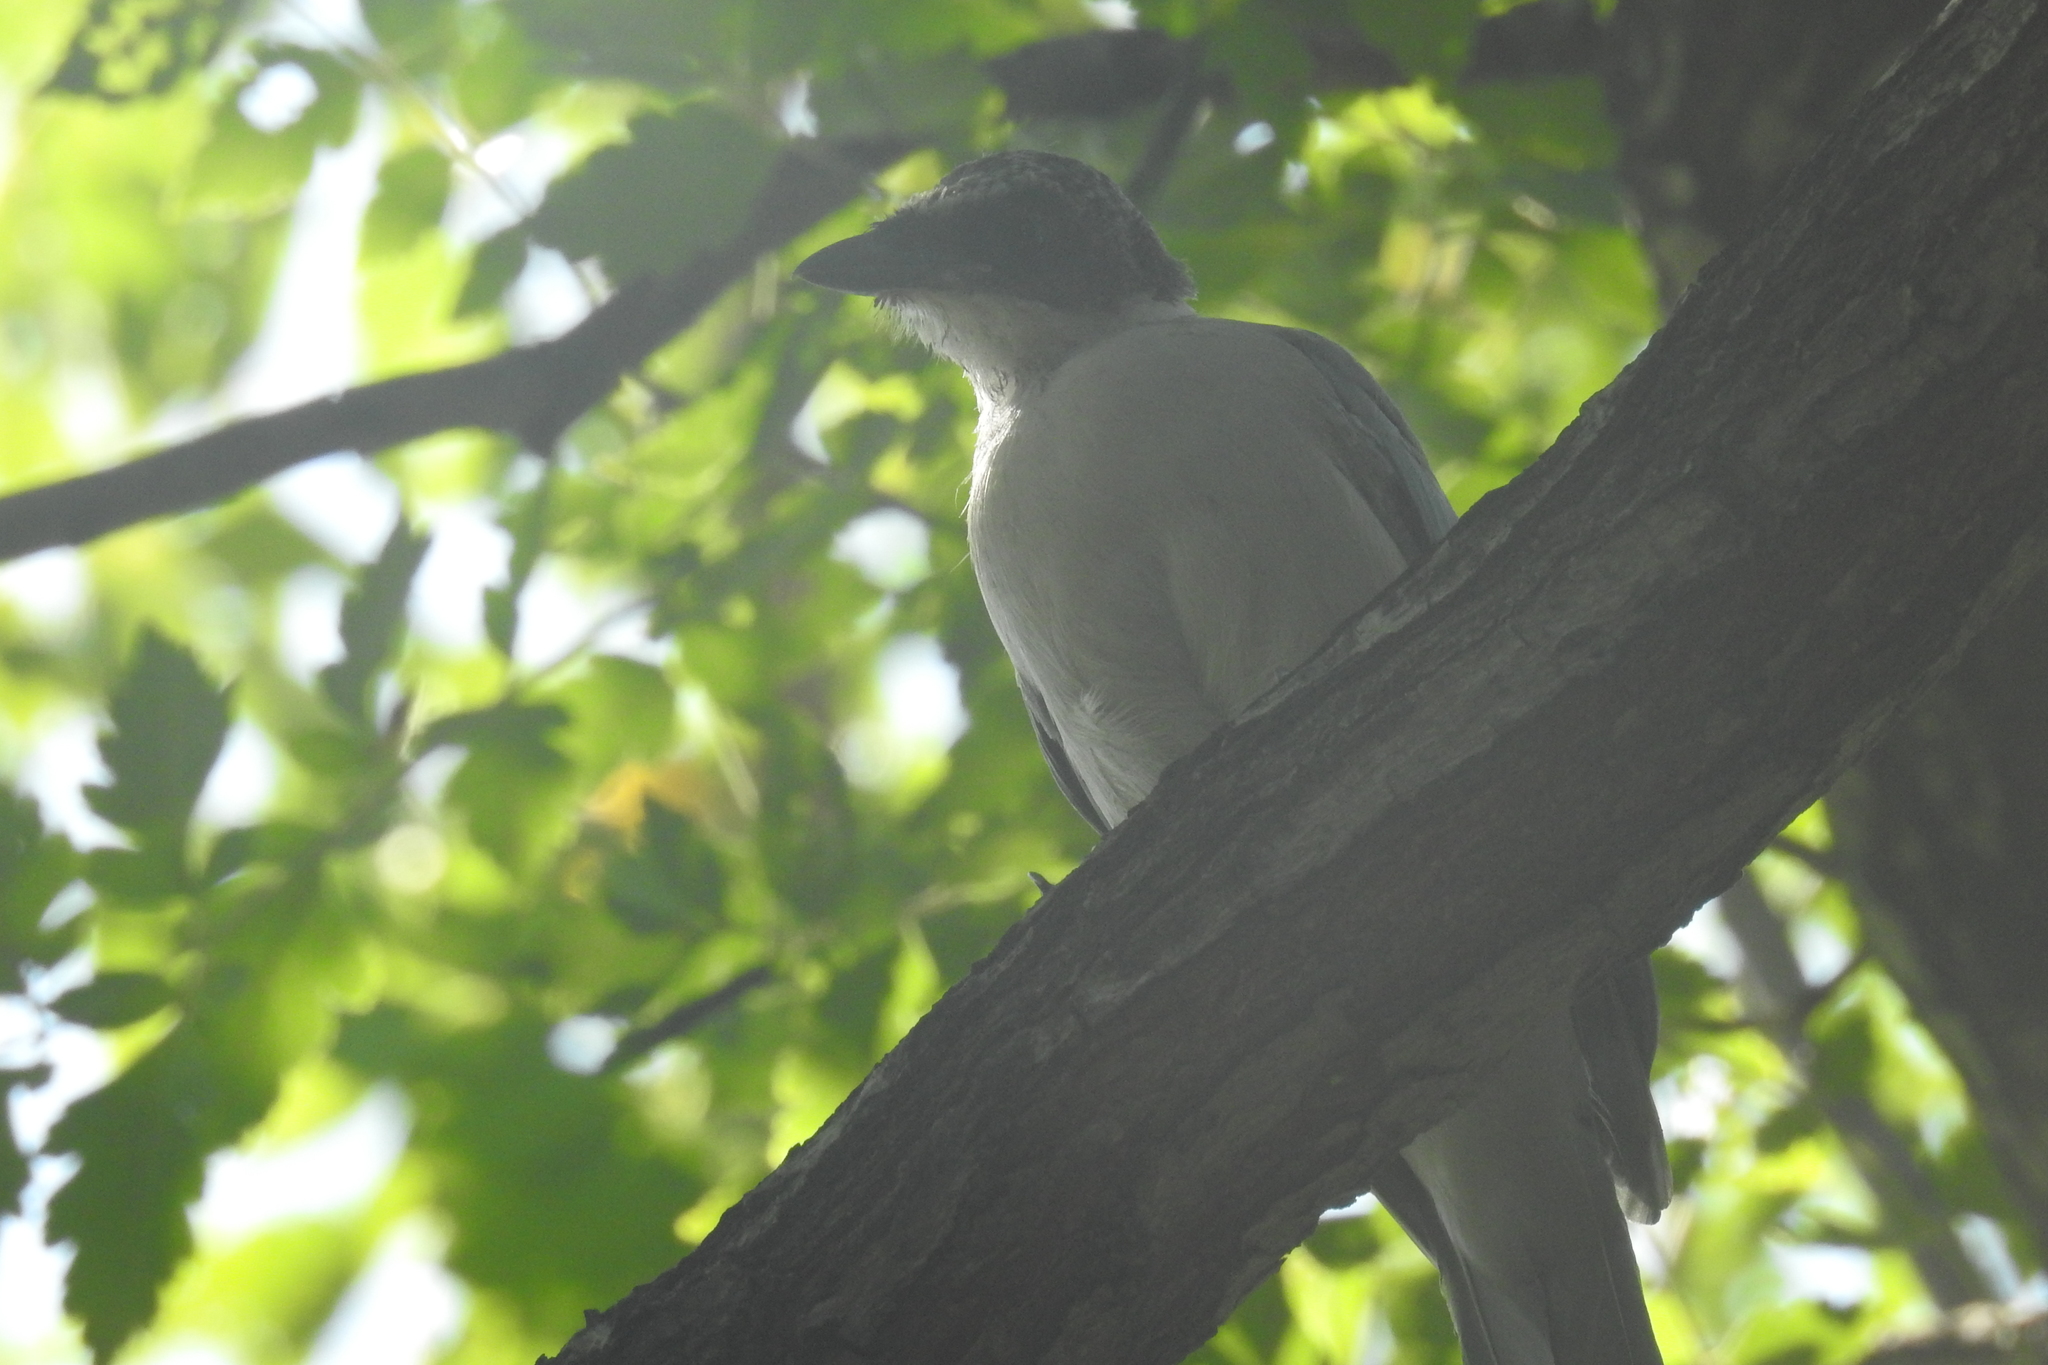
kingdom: Animalia
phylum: Chordata
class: Aves
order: Passeriformes
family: Corvidae
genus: Cyanopica
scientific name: Cyanopica cyanus
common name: Azure-winged magpie
